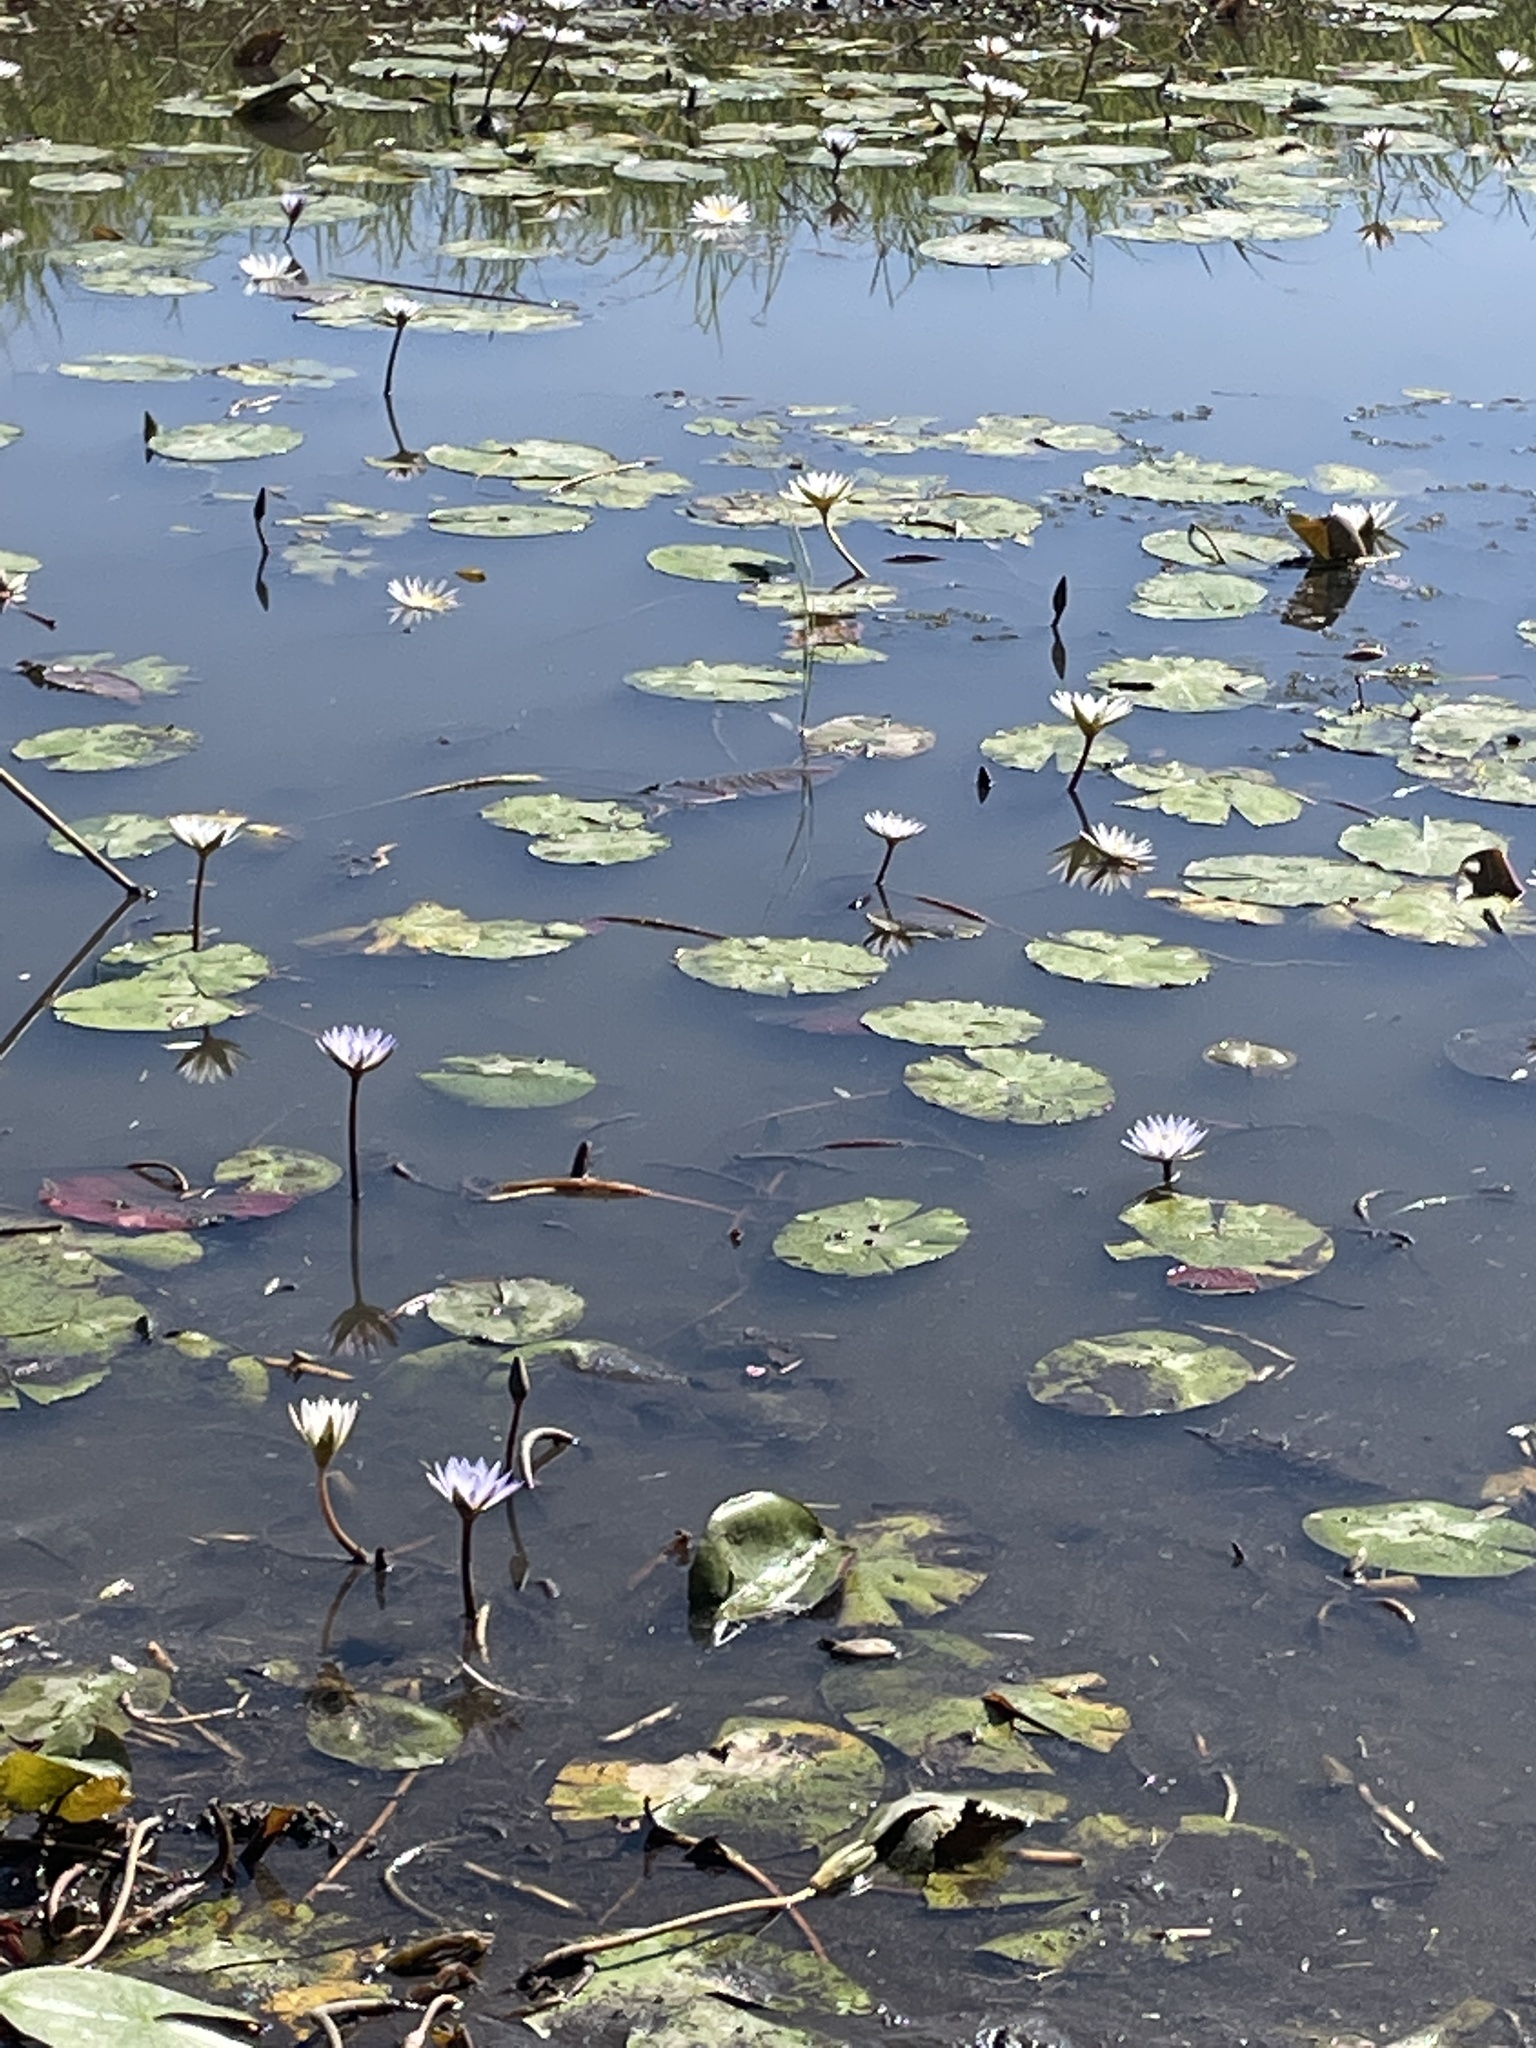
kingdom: Plantae
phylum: Tracheophyta
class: Magnoliopsida
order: Nymphaeales
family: Nymphaeaceae
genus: Nymphaea
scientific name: Nymphaea nouchali
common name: Blue lotus
